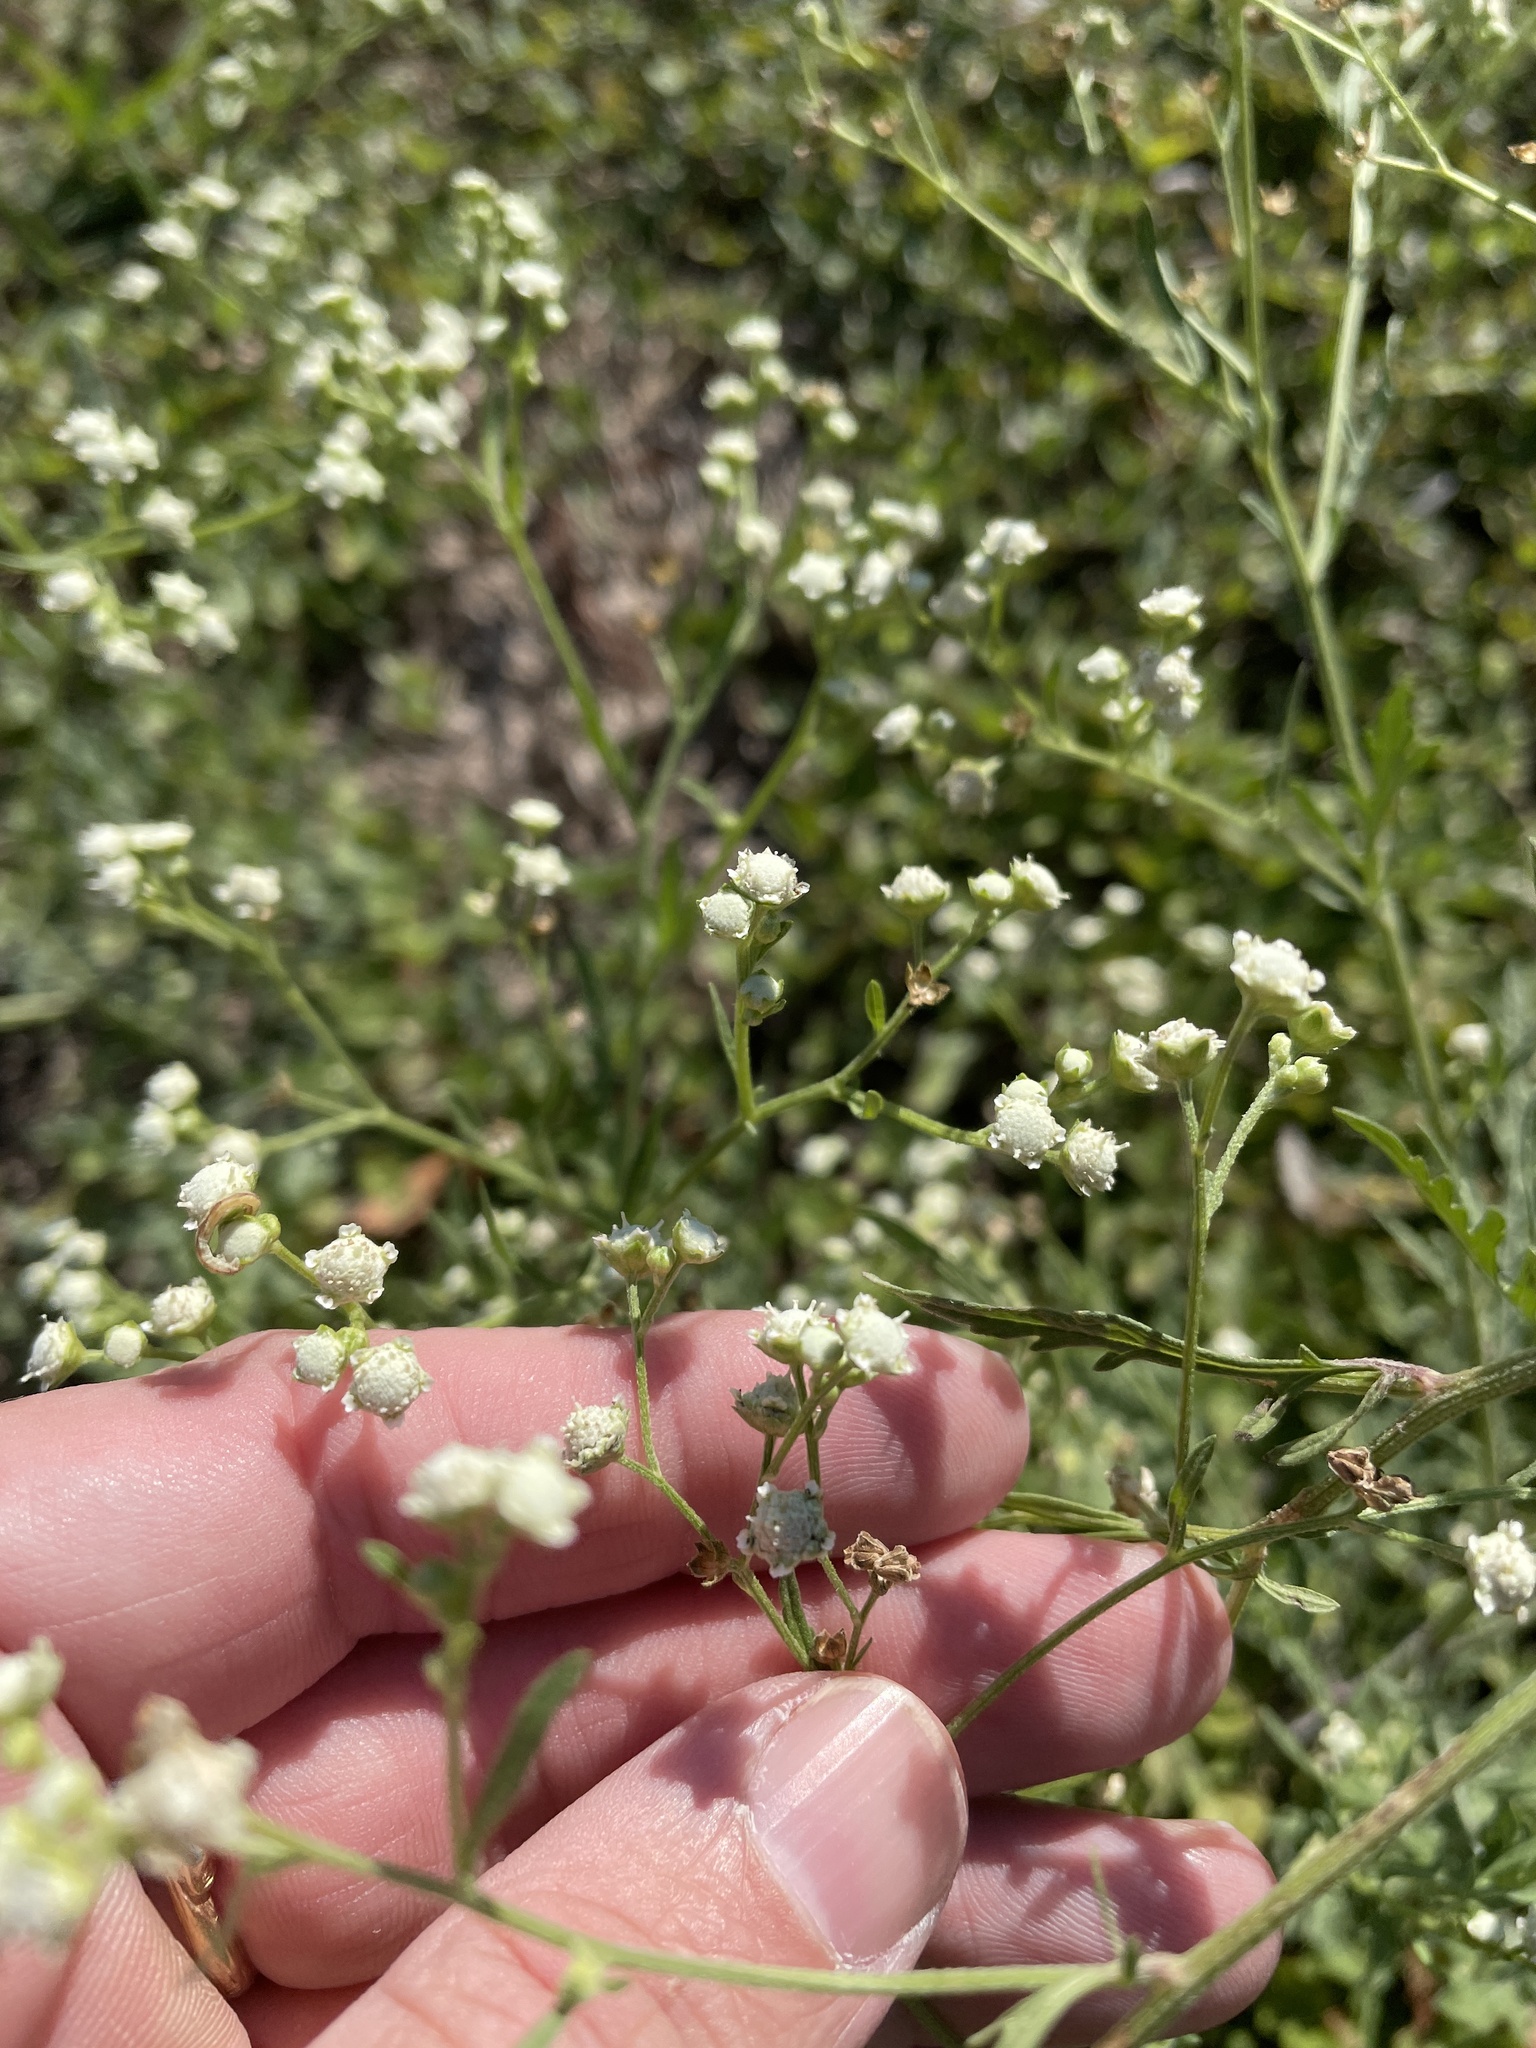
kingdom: Plantae
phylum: Tracheophyta
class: Magnoliopsida
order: Asterales
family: Asteraceae
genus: Parthenium
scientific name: Parthenium hysterophorus
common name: Santa maria feverfew
